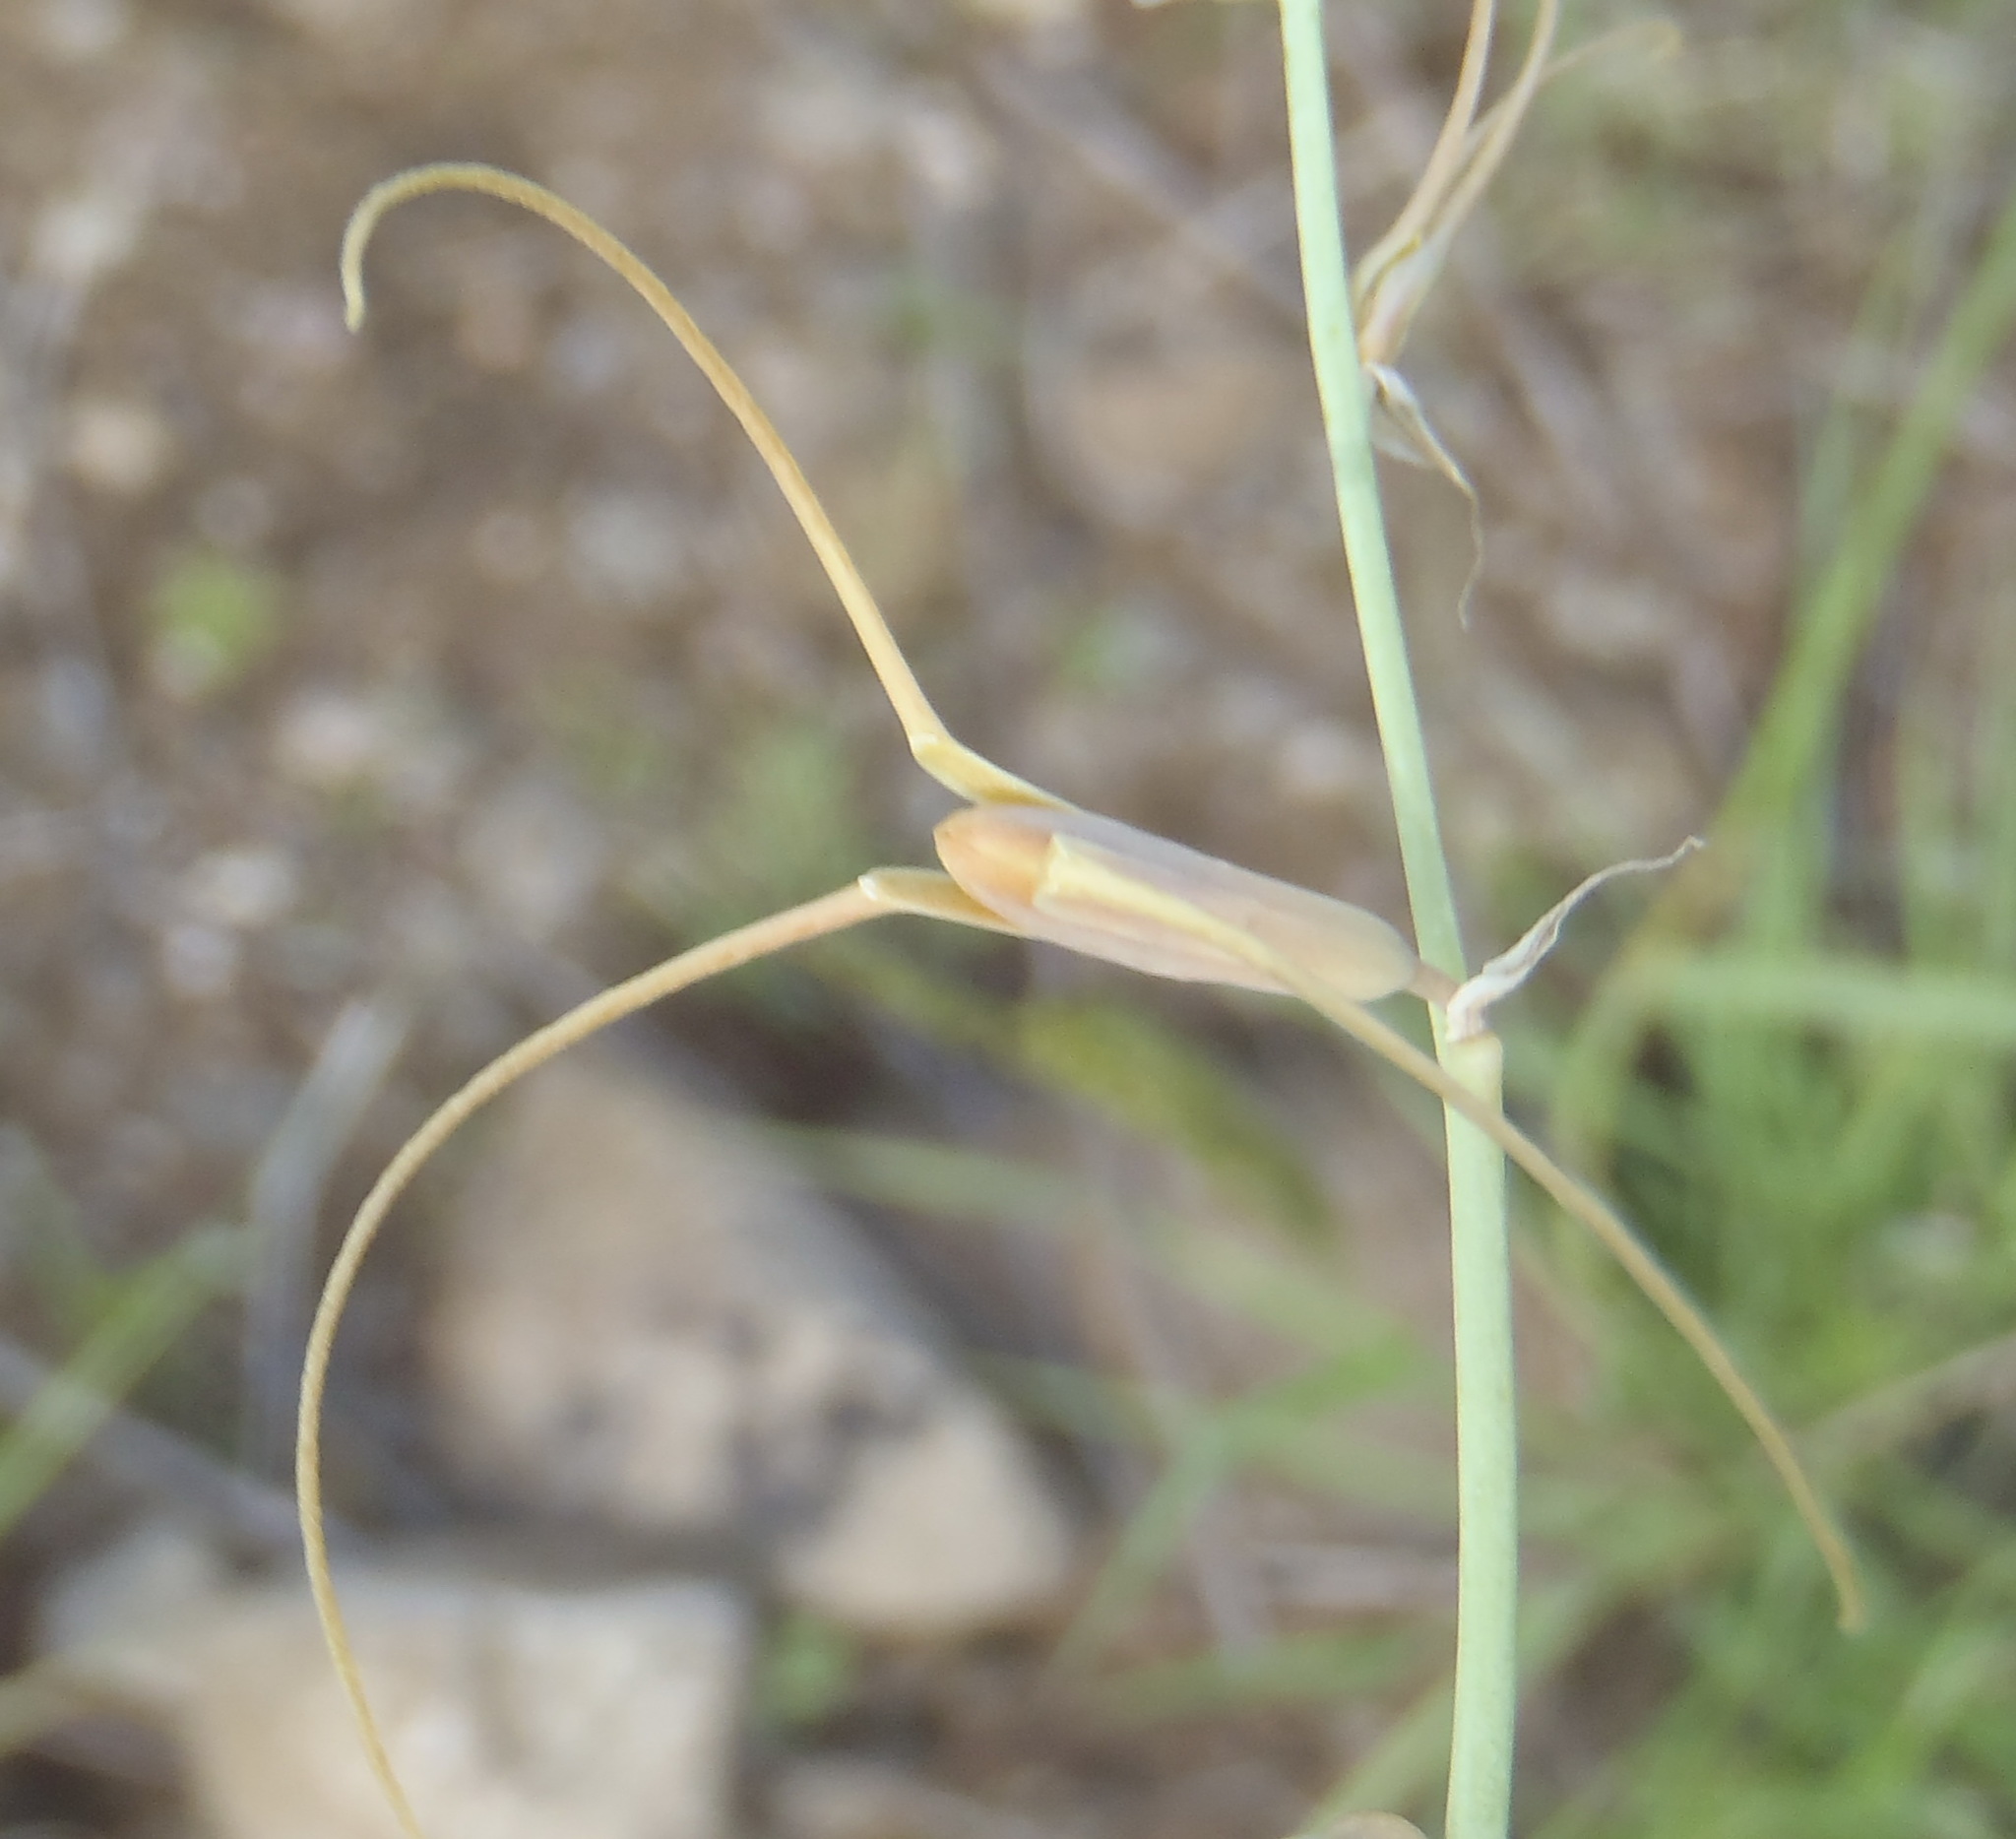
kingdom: Plantae
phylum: Tracheophyta
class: Liliopsida
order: Asparagales
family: Asparagaceae
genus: Dipcadi
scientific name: Dipcadi viride
